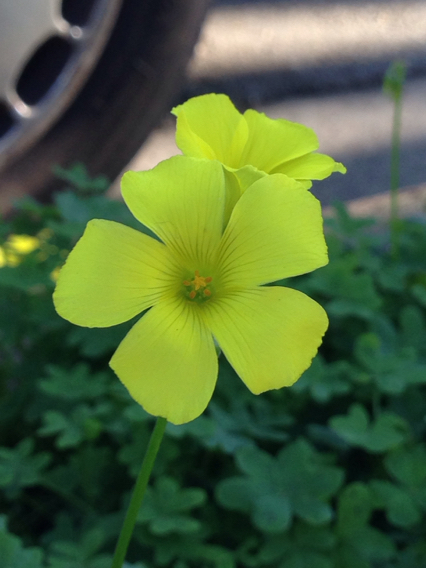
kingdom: Plantae
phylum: Tracheophyta
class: Magnoliopsida
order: Oxalidales
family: Oxalidaceae
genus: Oxalis
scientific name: Oxalis pes-caprae
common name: Bermuda-buttercup
